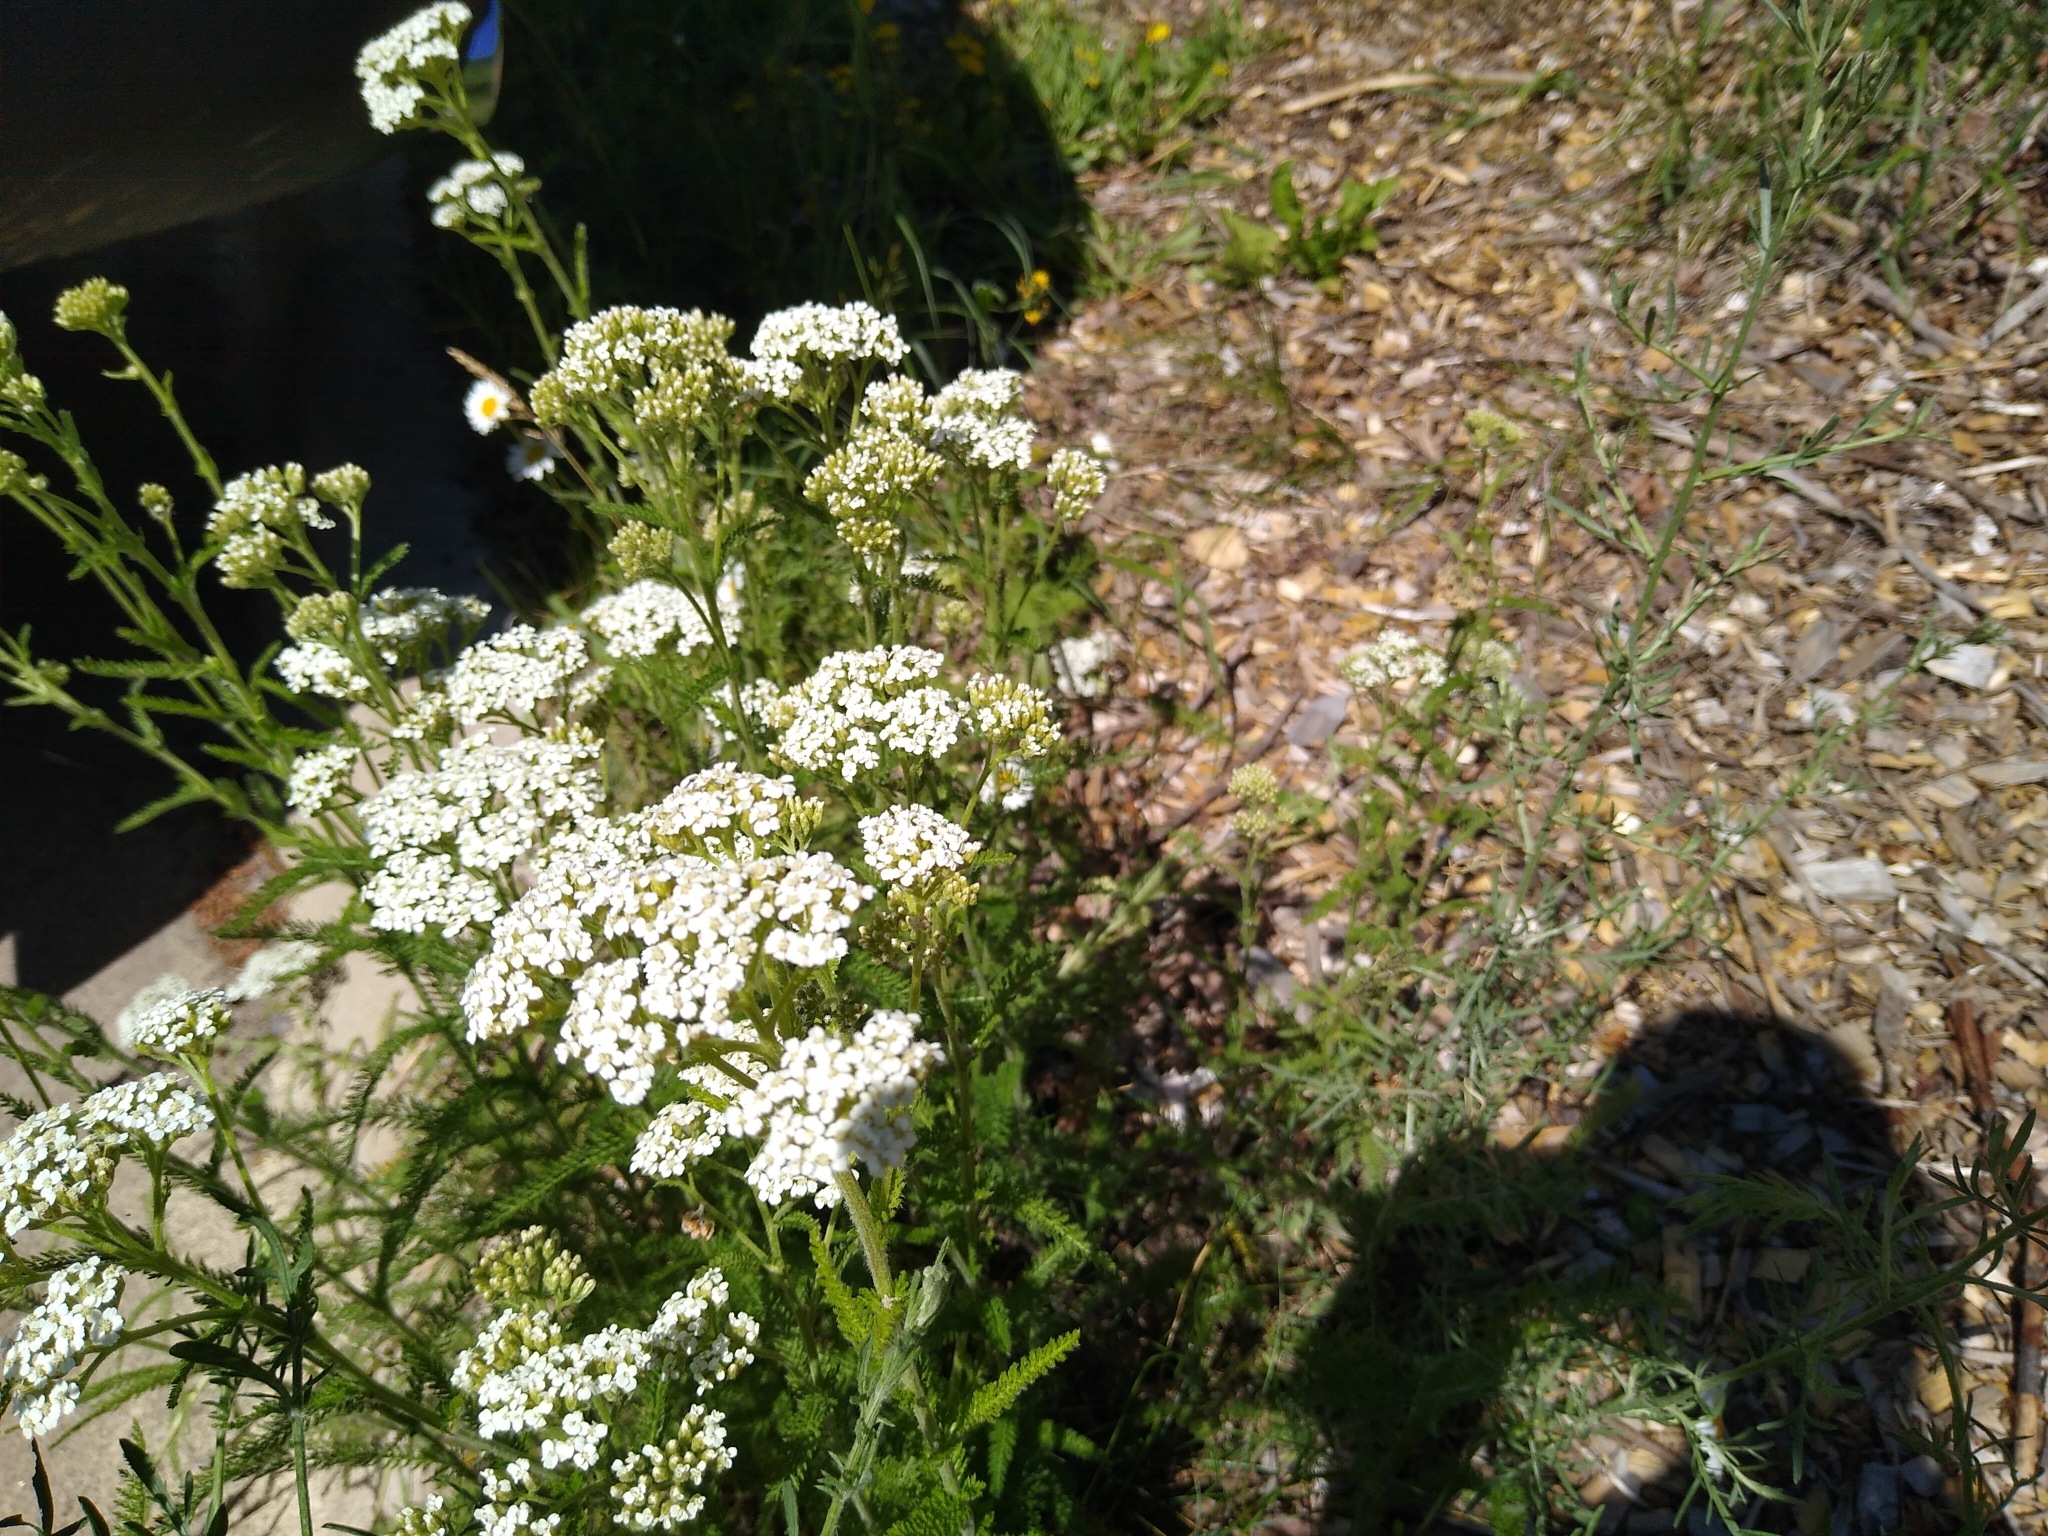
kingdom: Plantae
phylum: Tracheophyta
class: Magnoliopsida
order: Asterales
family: Asteraceae
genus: Achillea
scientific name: Achillea millefolium
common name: Yarrow
